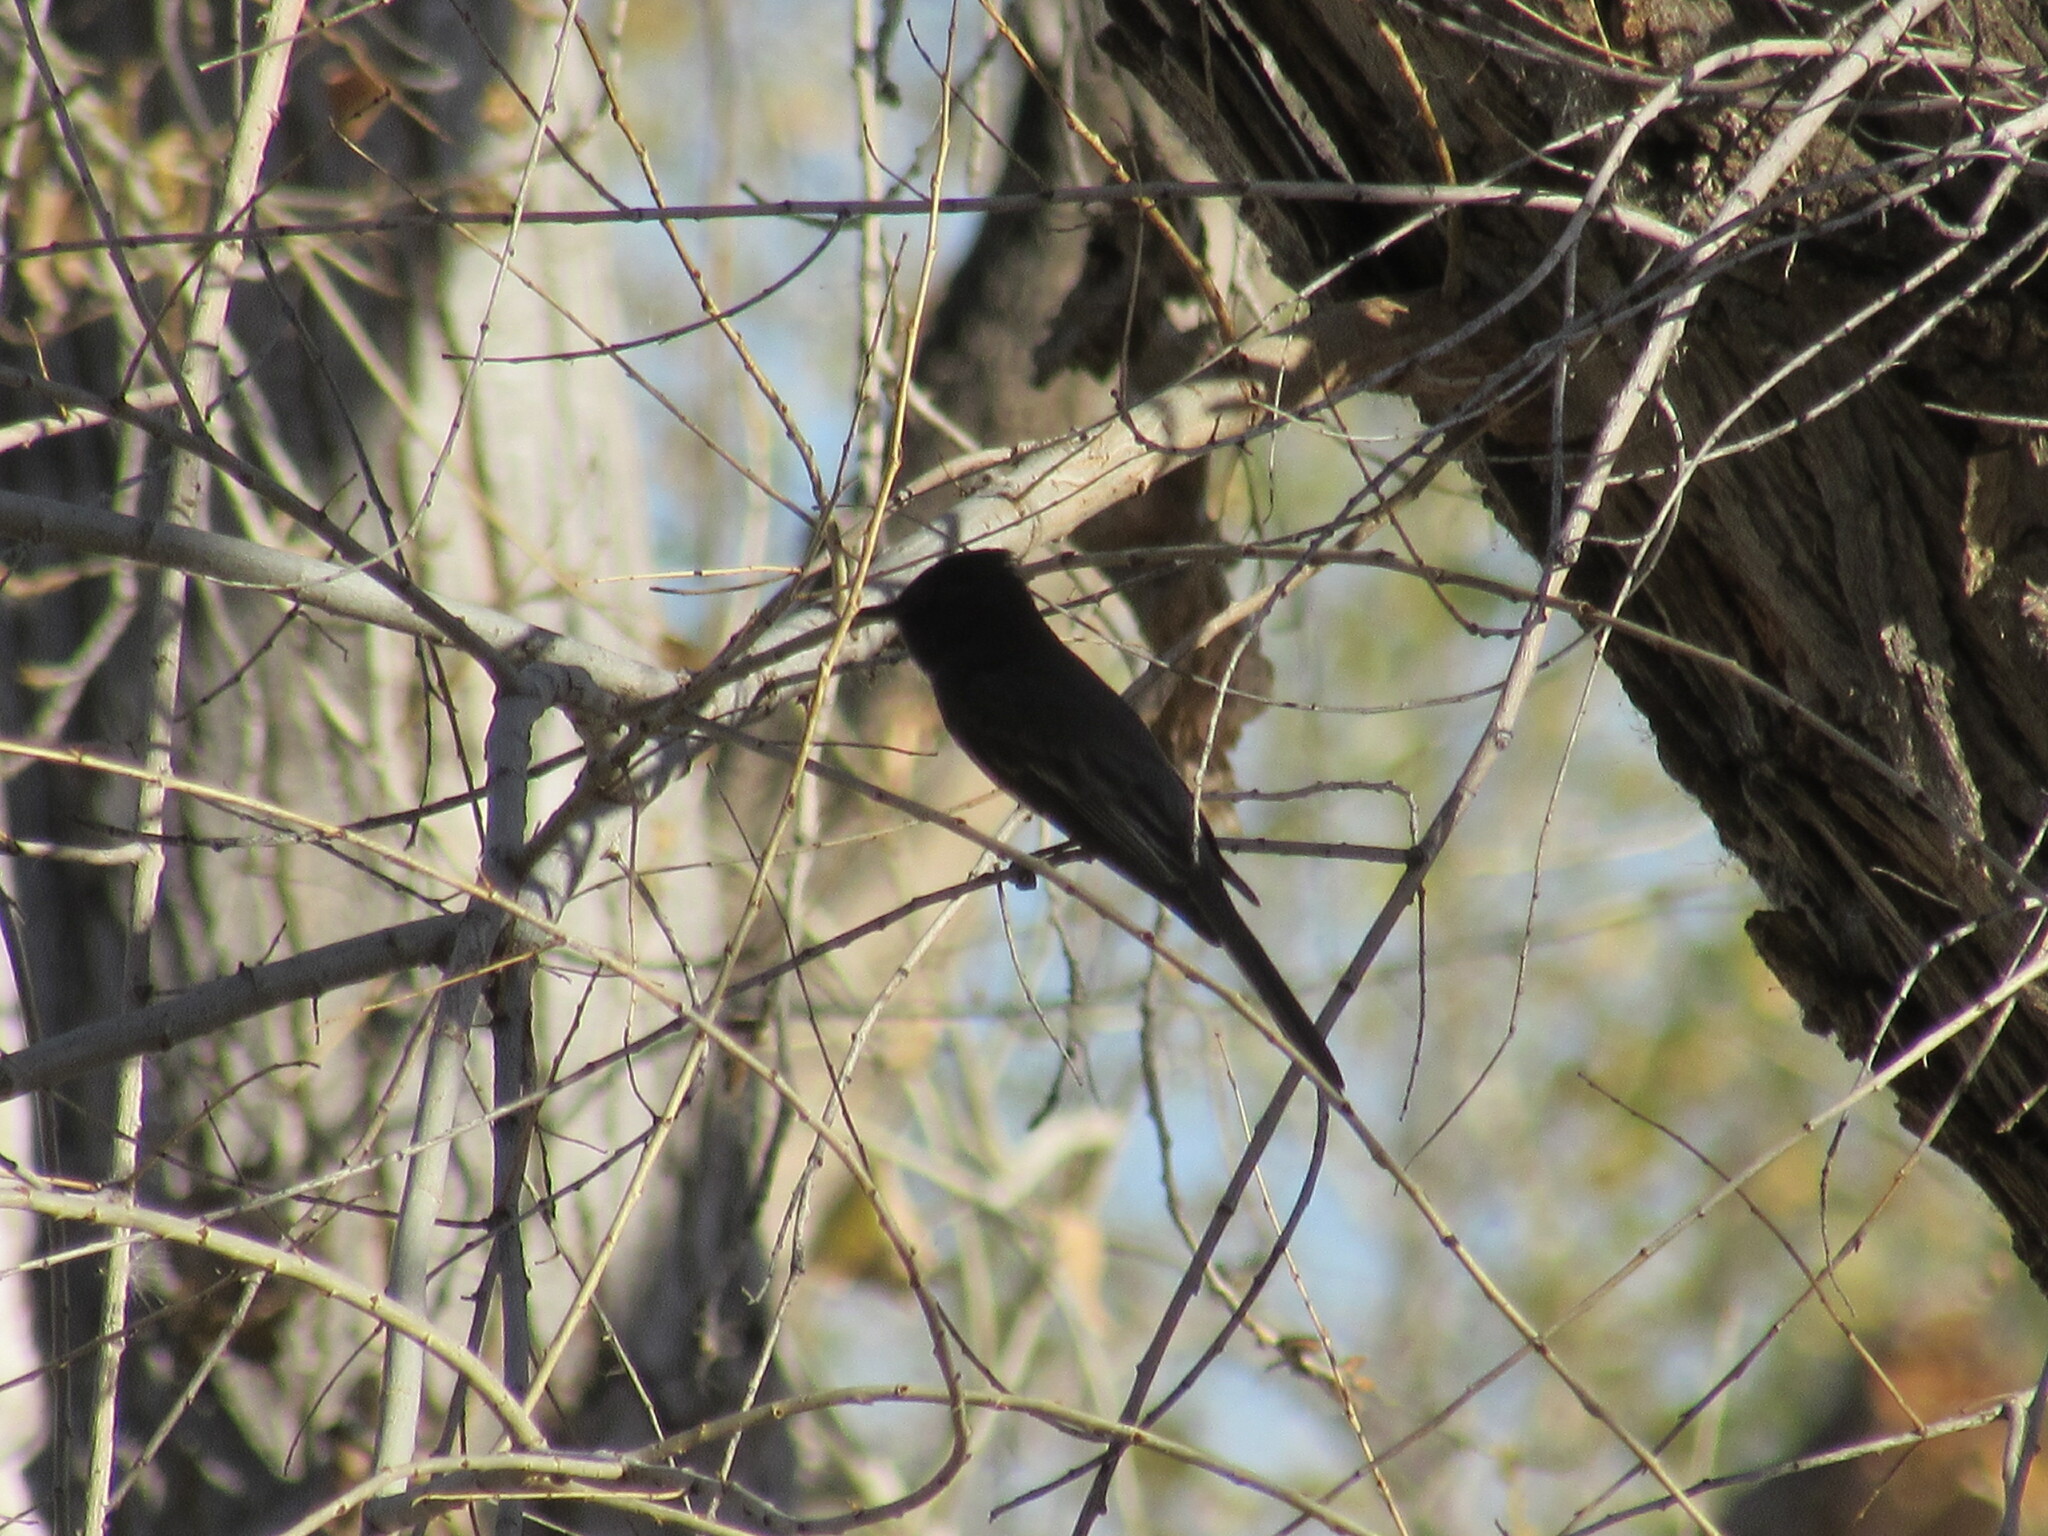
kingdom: Animalia
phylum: Chordata
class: Aves
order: Passeriformes
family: Tyrannidae
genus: Sayornis
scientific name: Sayornis nigricans
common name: Black phoebe
